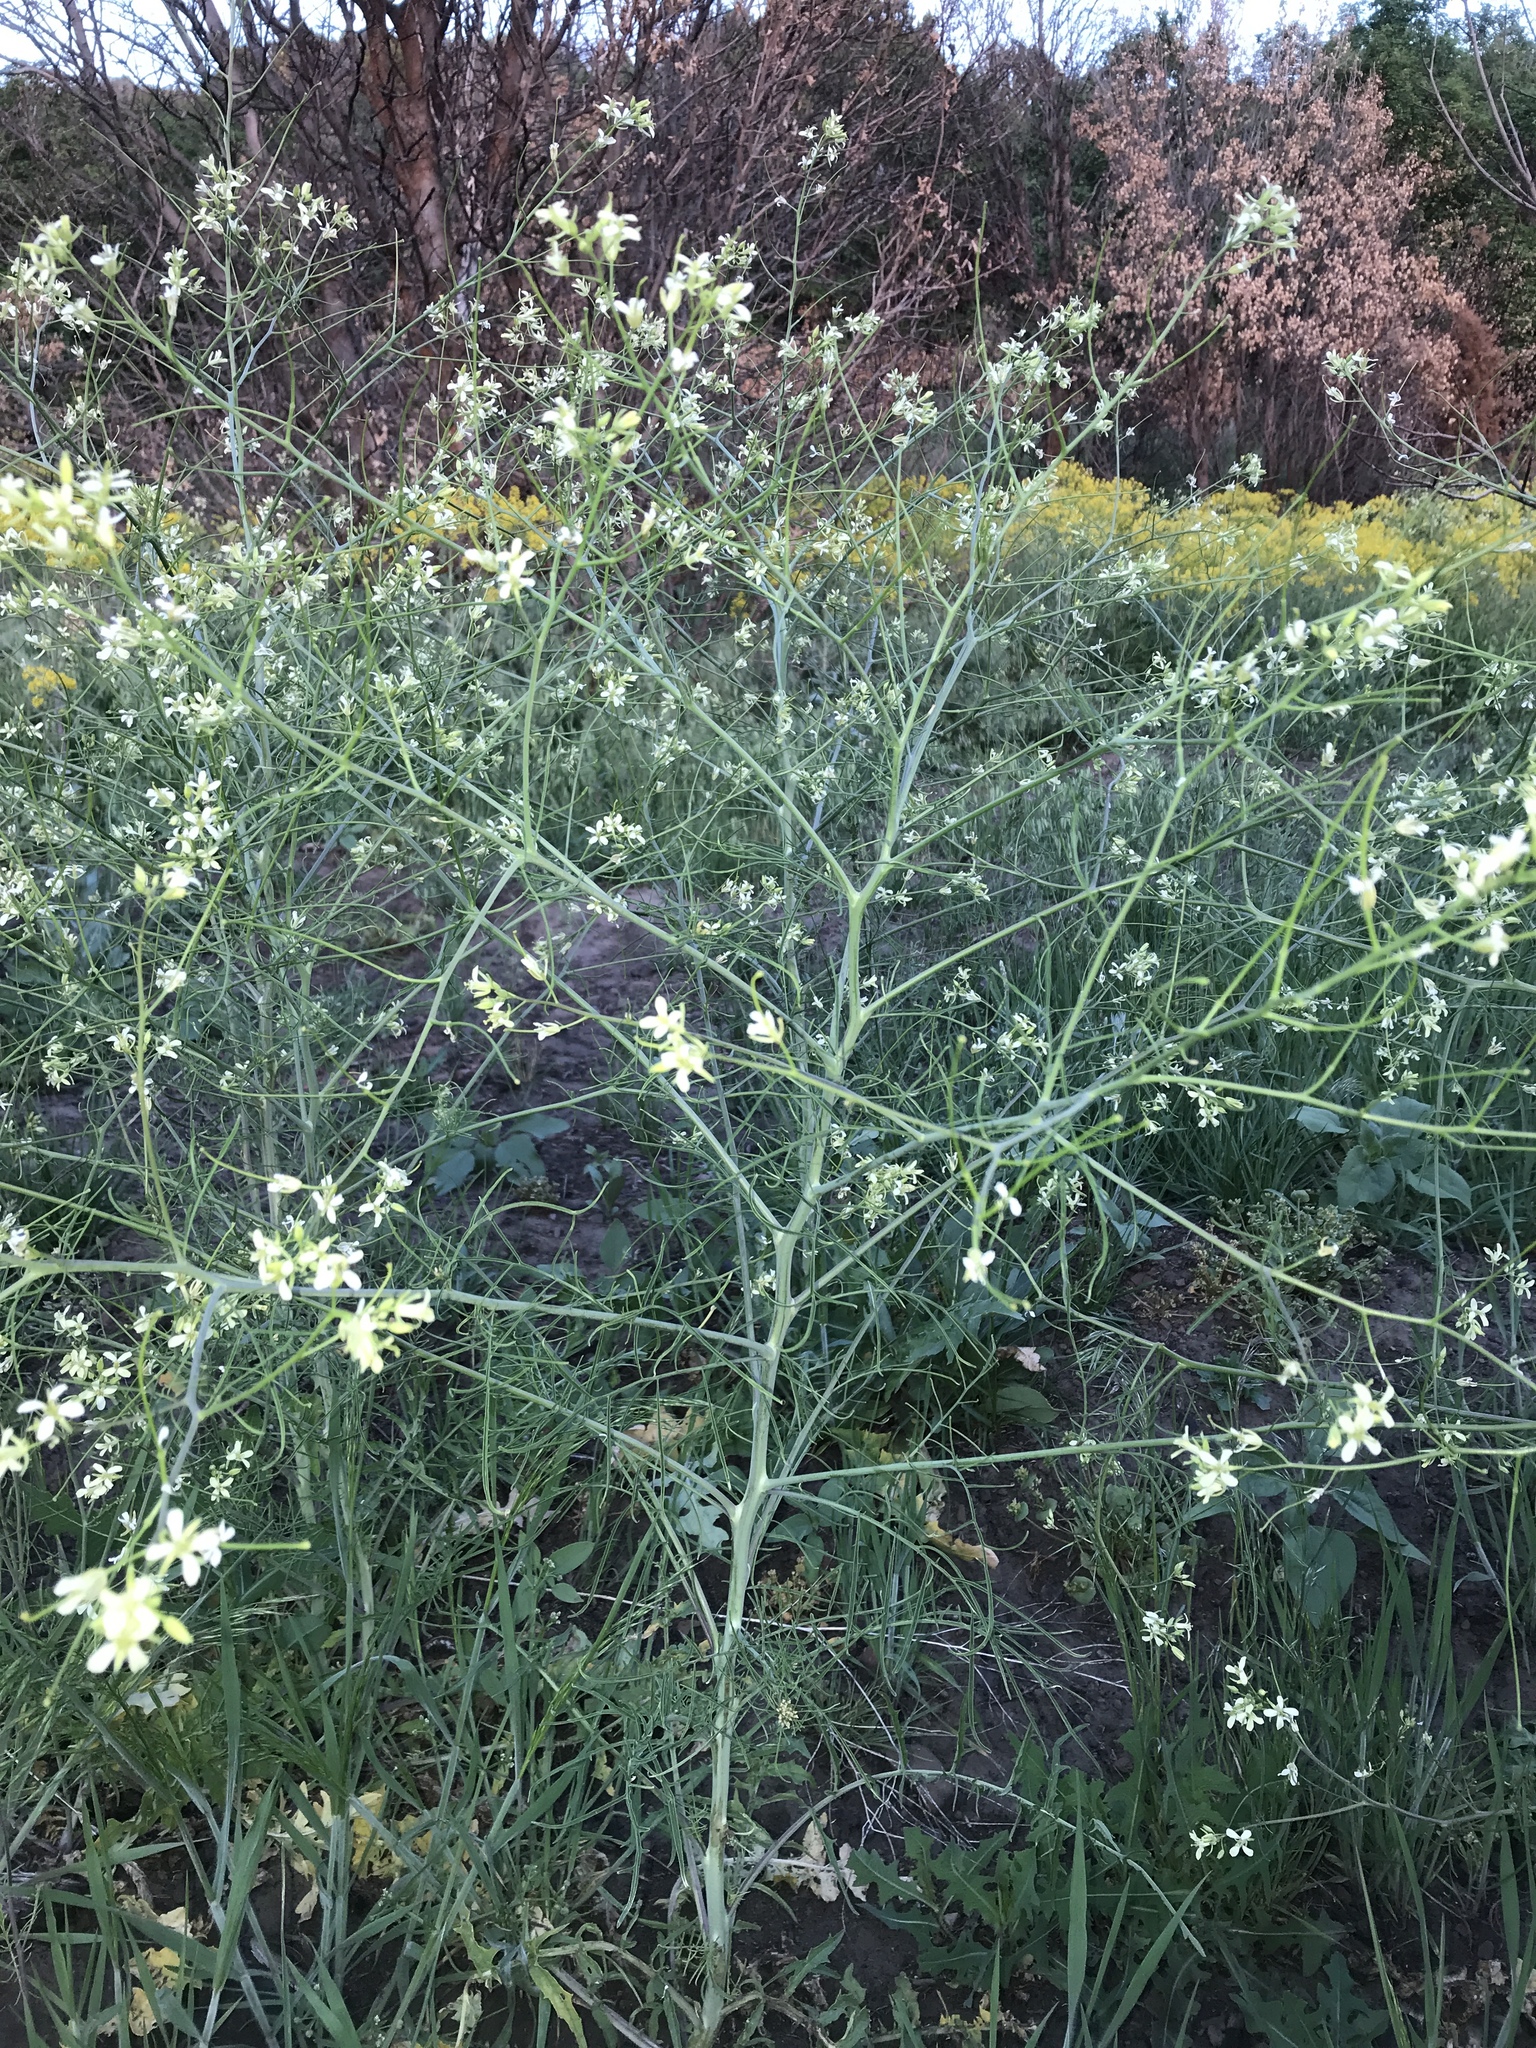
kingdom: Plantae
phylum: Tracheophyta
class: Magnoliopsida
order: Brassicales
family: Brassicaceae
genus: Sisymbrium
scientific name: Sisymbrium altissimum
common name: Tall rocket
